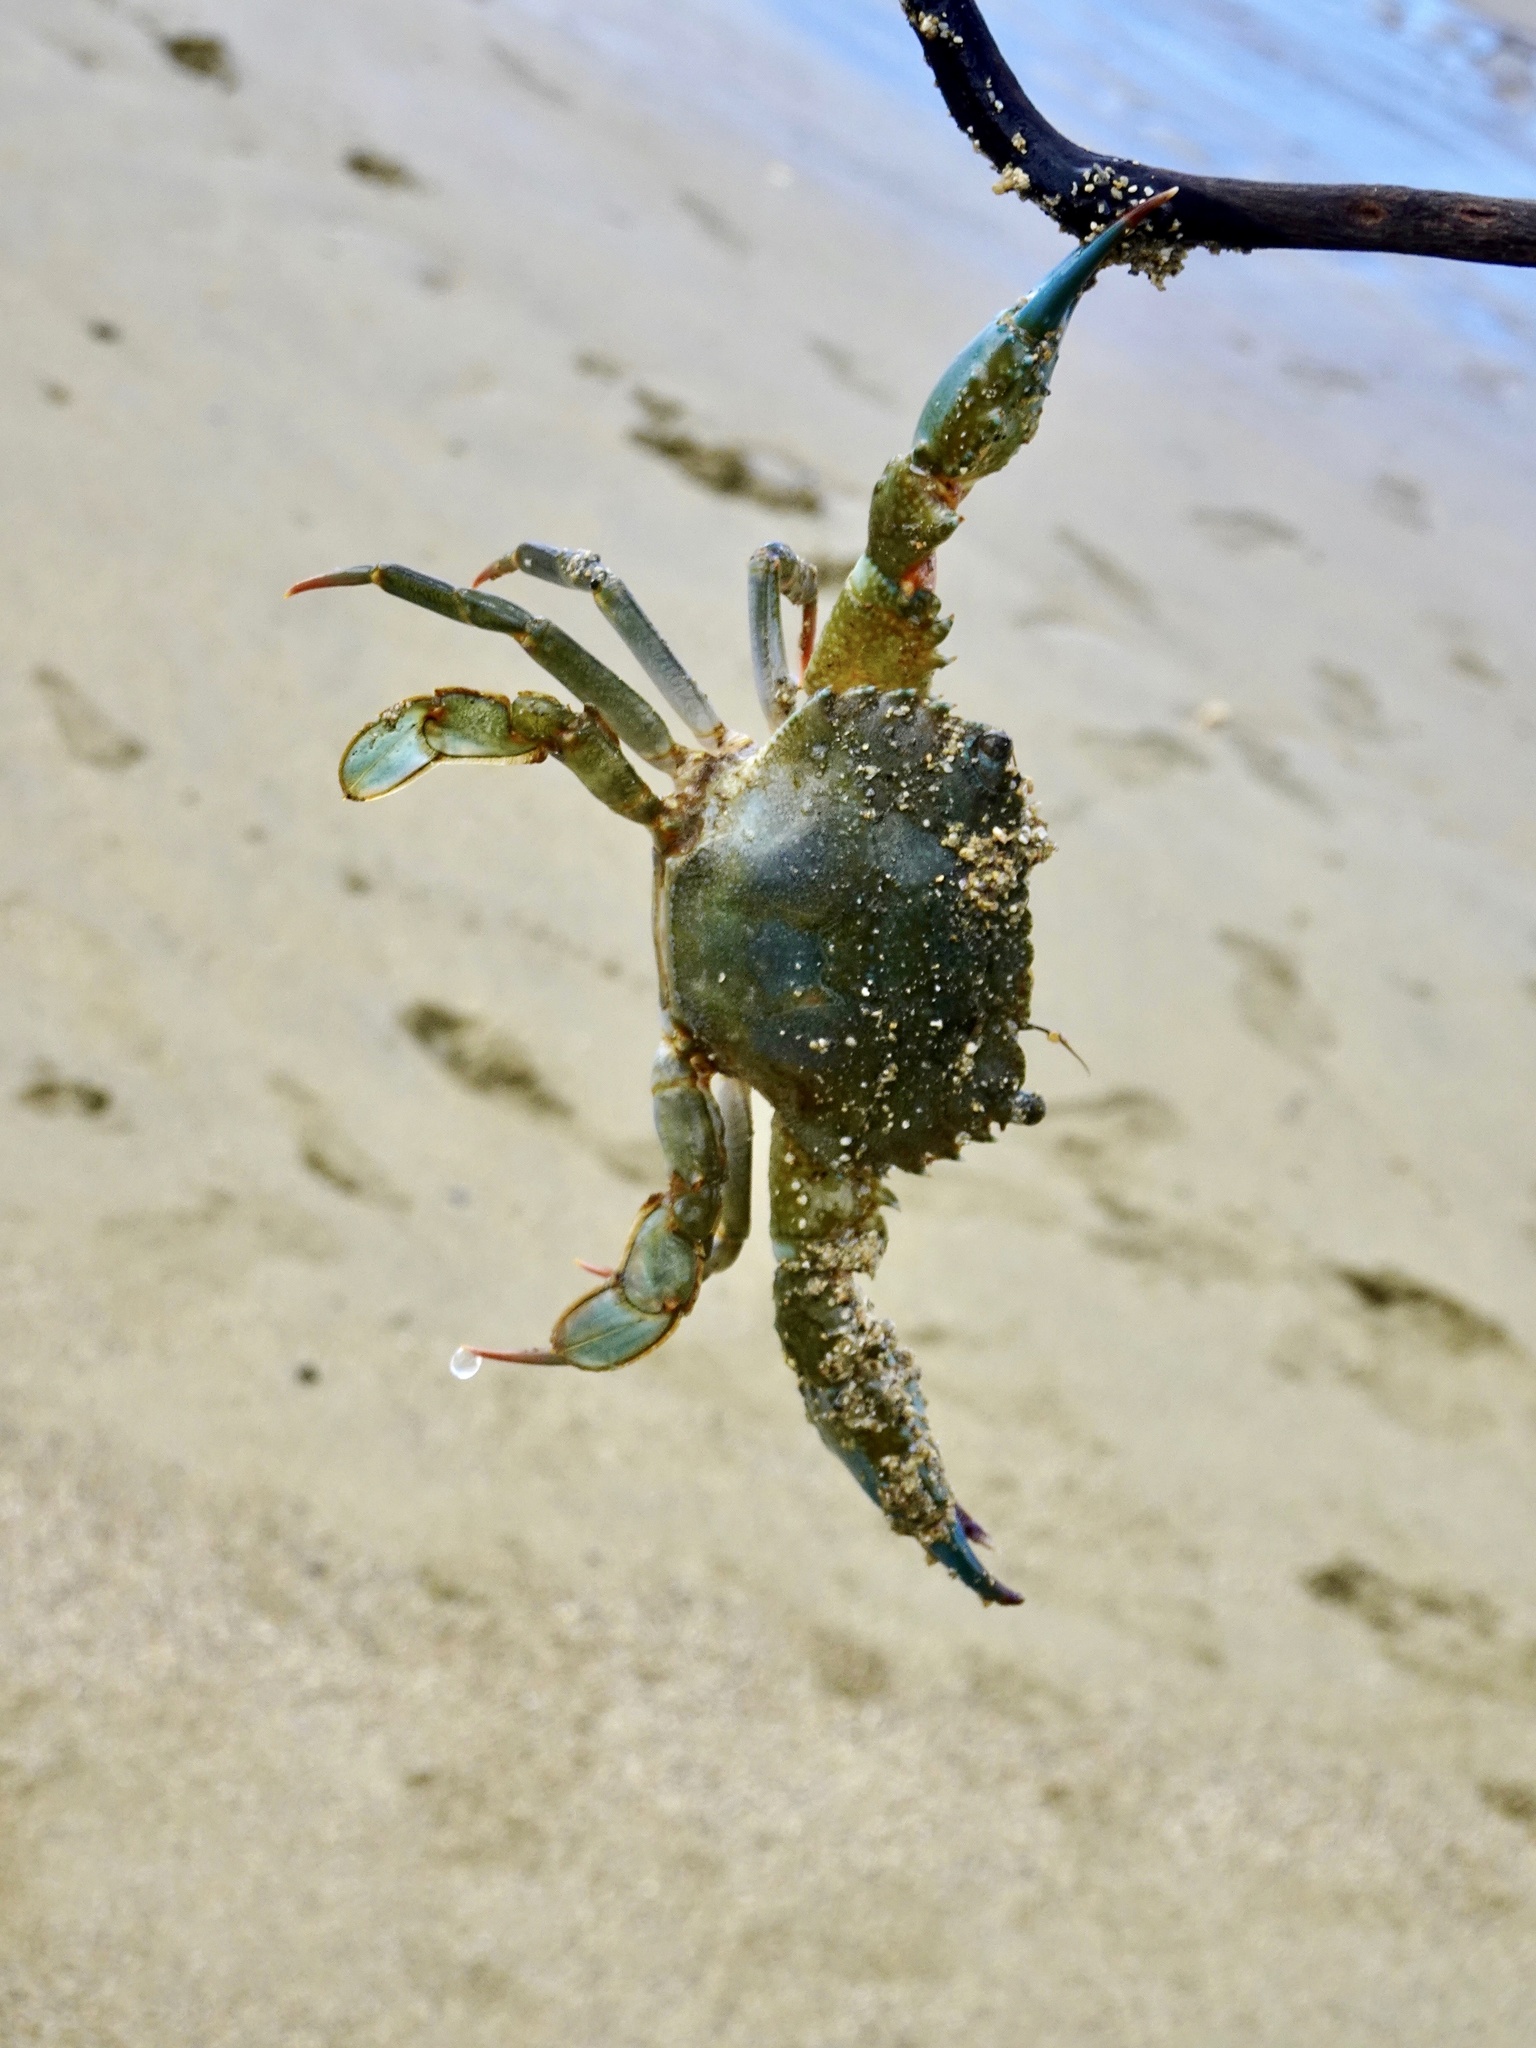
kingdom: Animalia
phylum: Arthropoda
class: Malacostraca
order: Decapoda
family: Portunidae
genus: Thalamita
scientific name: Thalamita crenata
